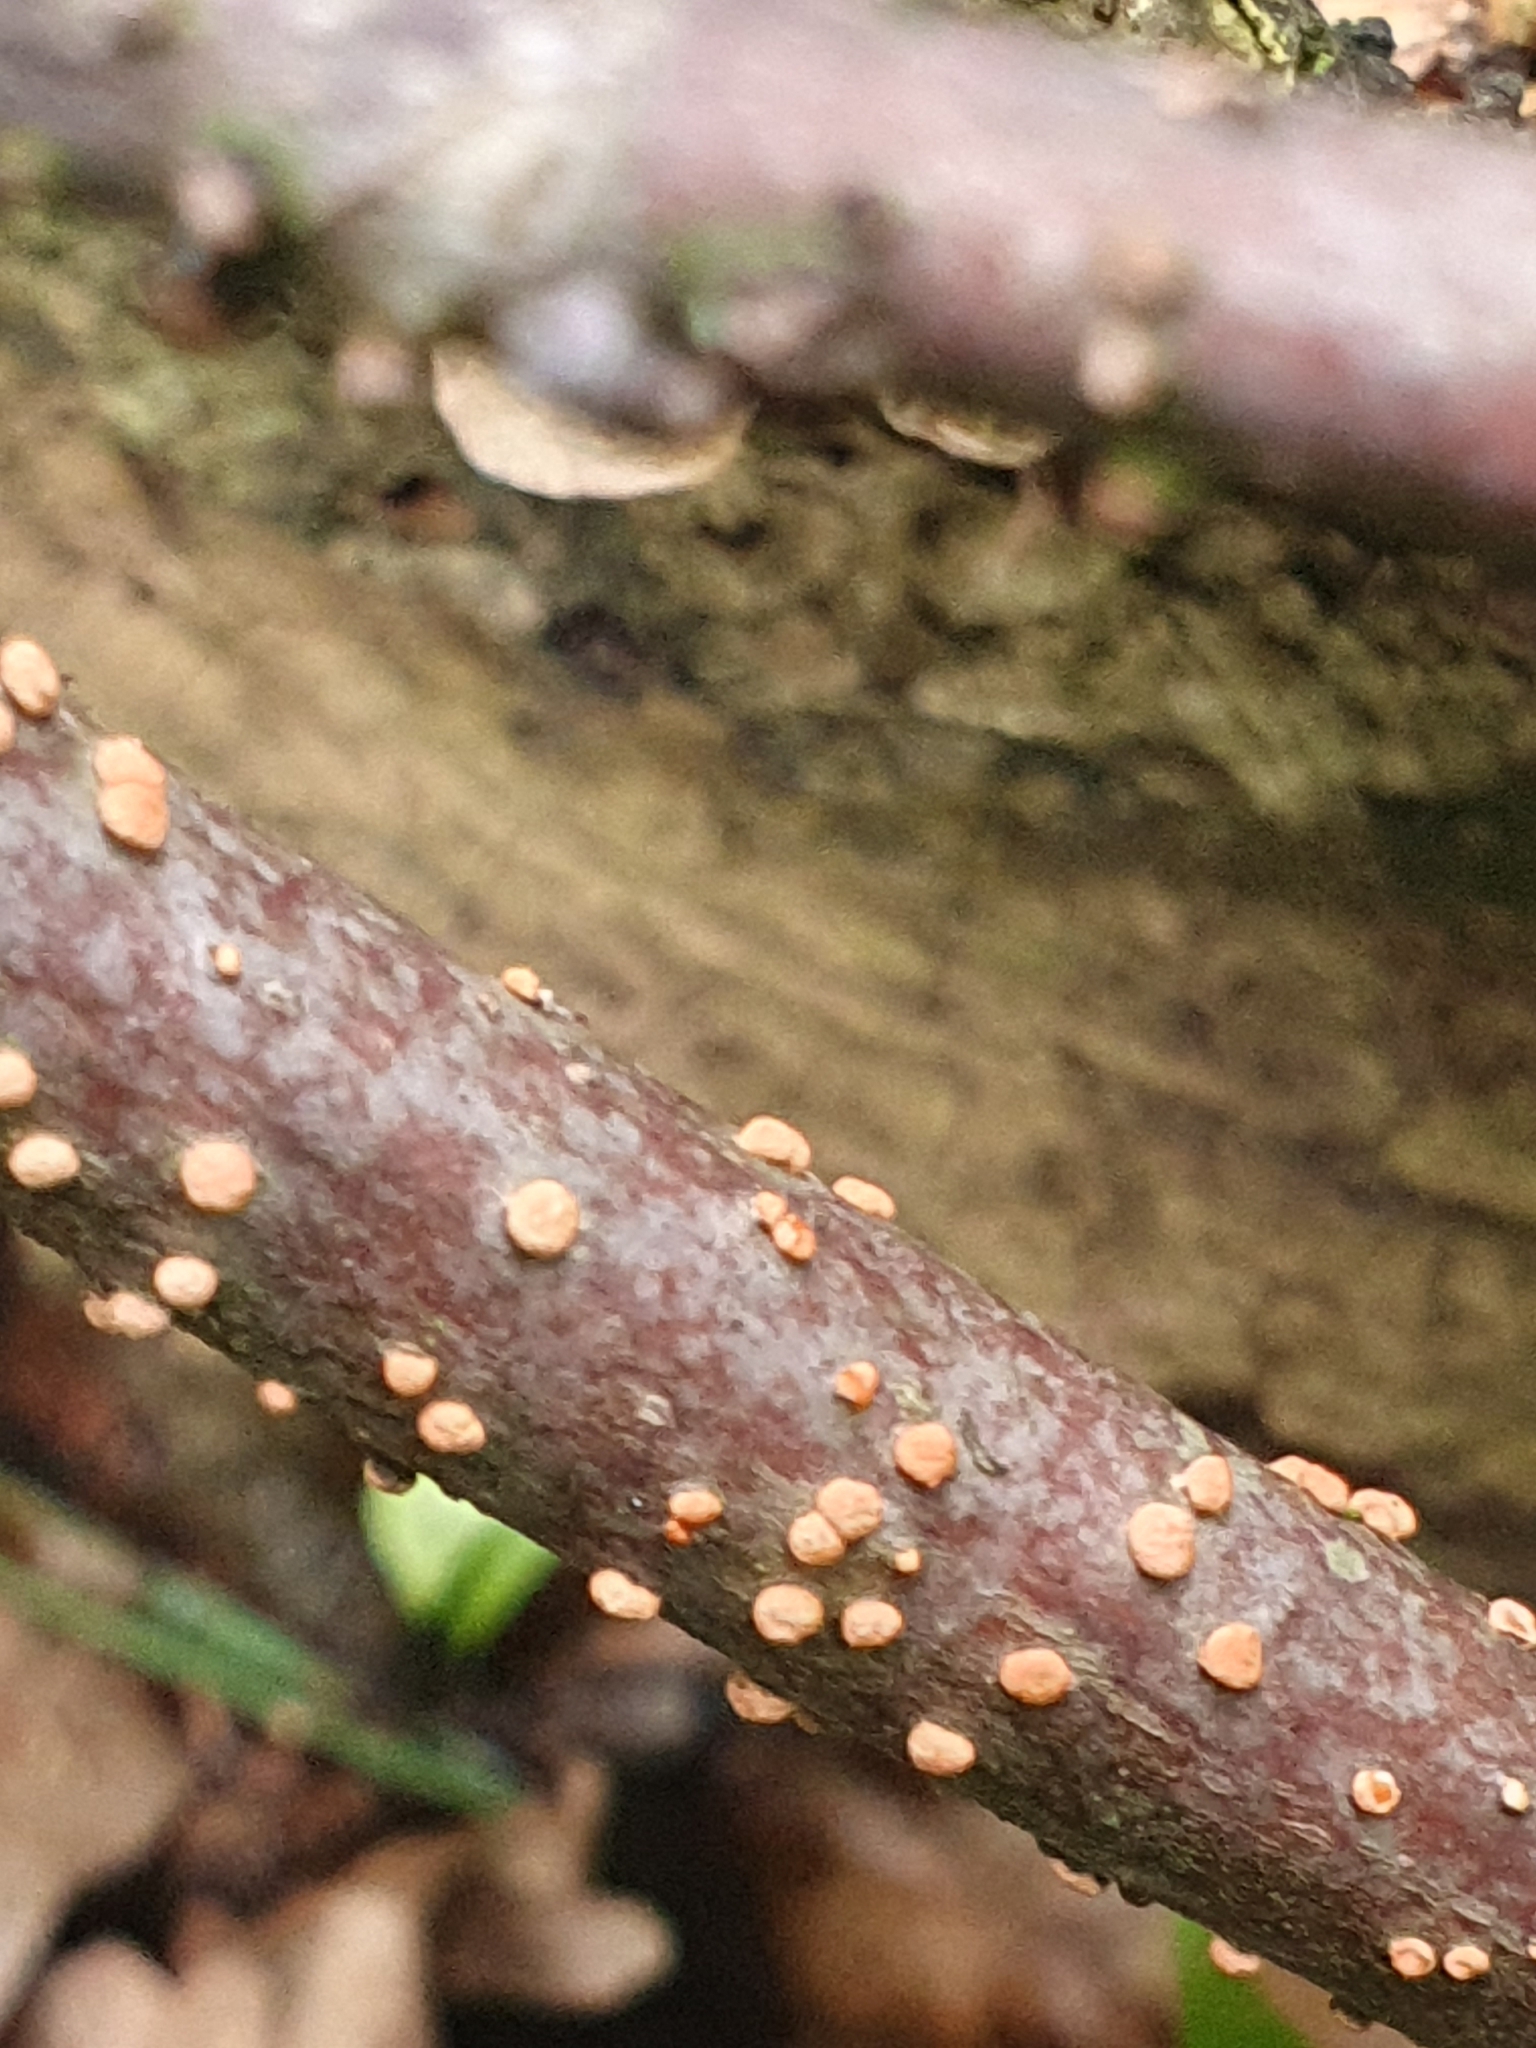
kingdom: Fungi
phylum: Ascomycota
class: Sordariomycetes
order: Hypocreales
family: Nectriaceae
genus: Nectria
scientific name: Nectria cinnabarina
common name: Coral spot
